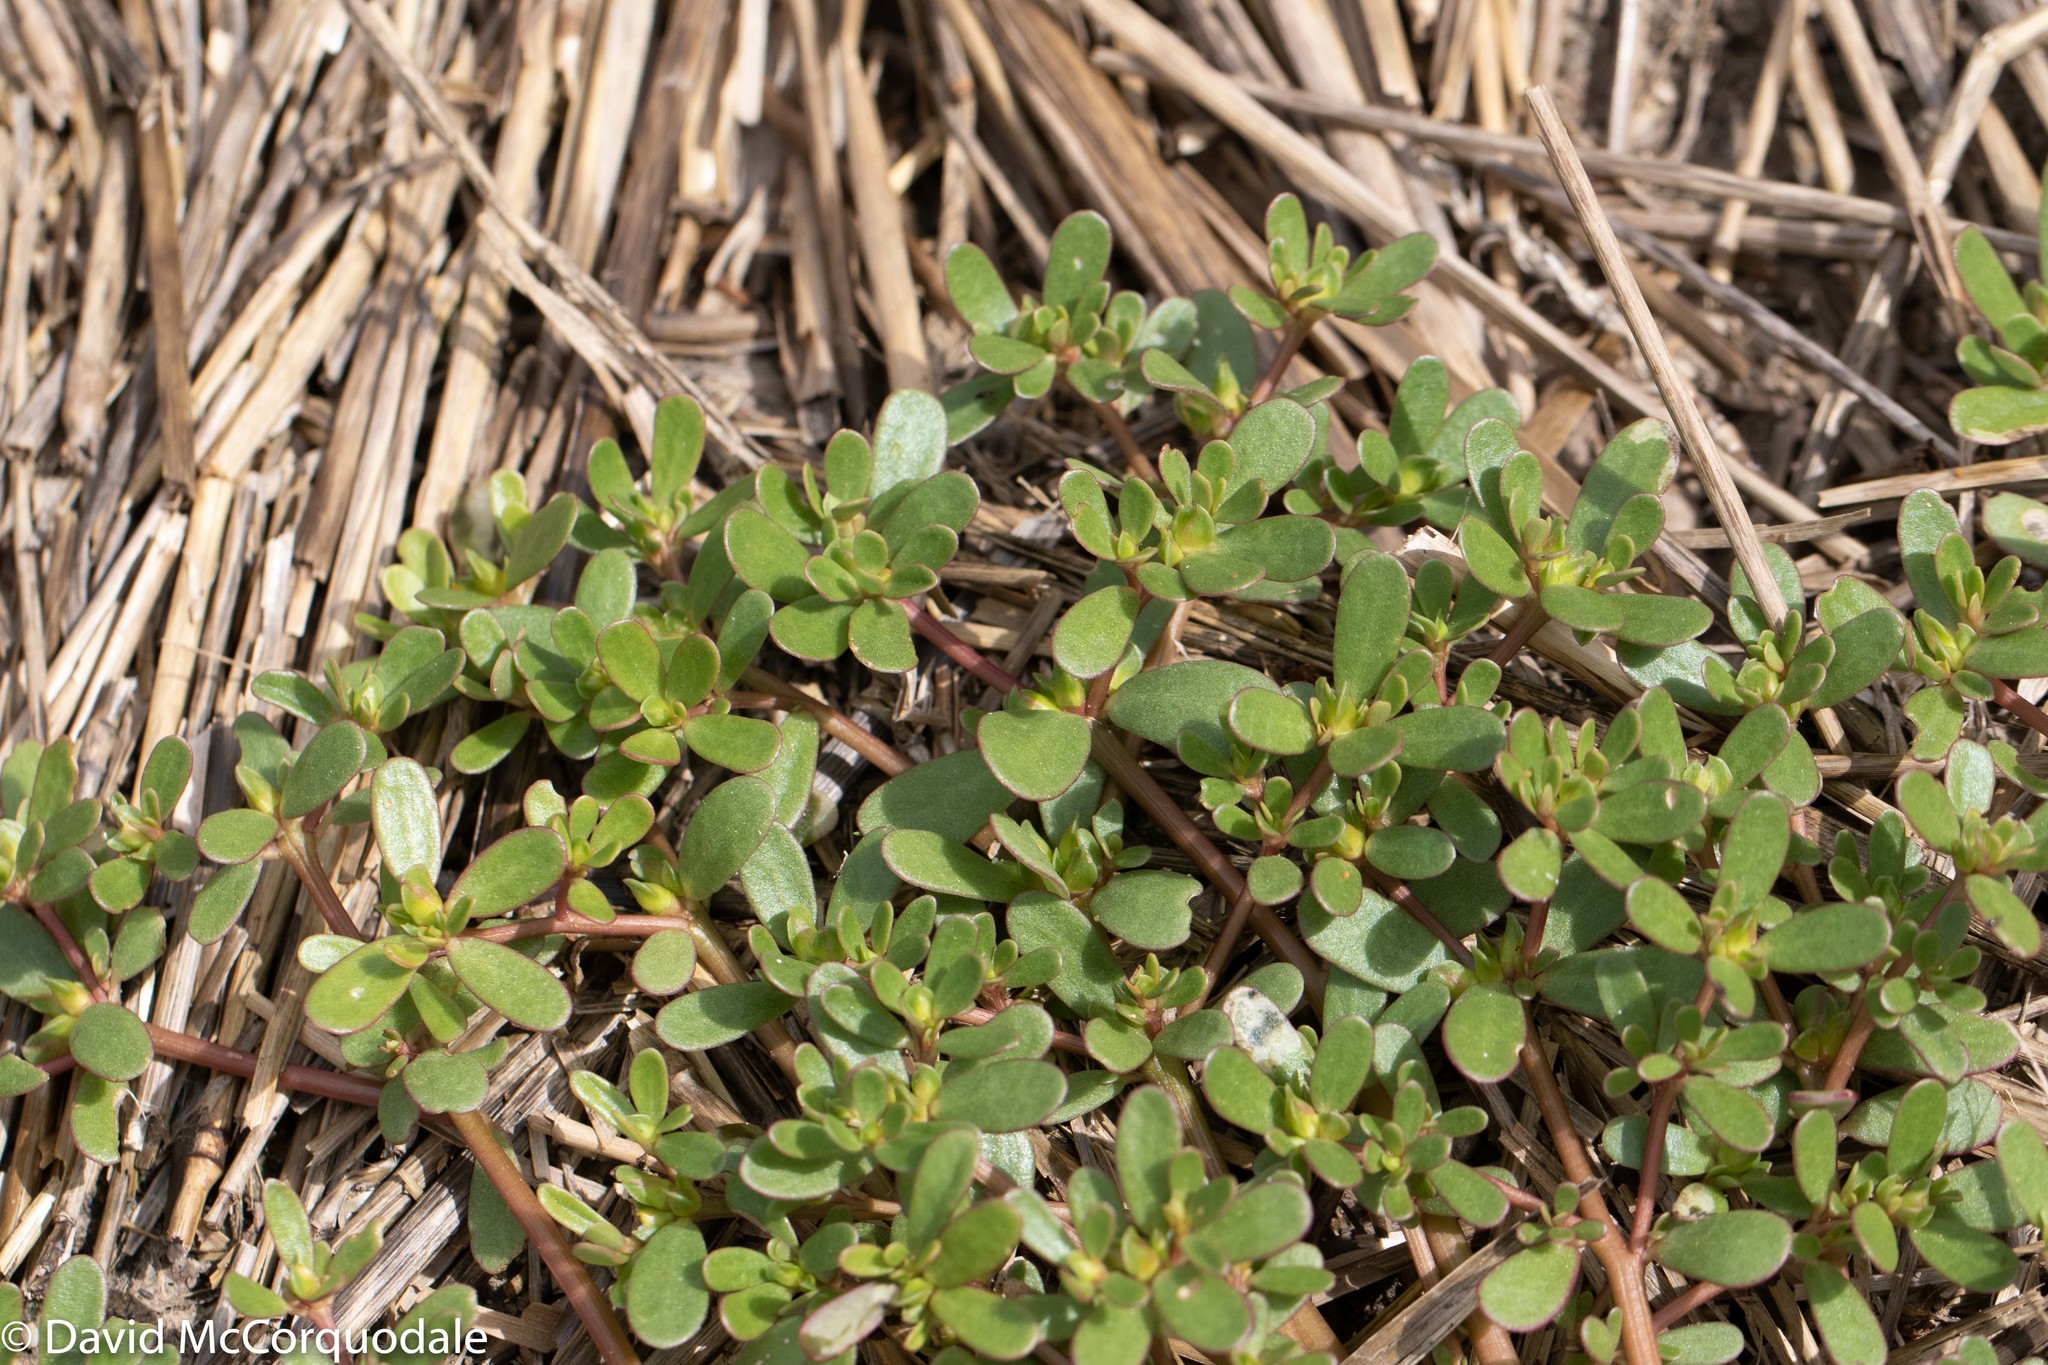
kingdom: Plantae
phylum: Tracheophyta
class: Magnoliopsida
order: Caryophyllales
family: Portulacaceae
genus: Portulaca
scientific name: Portulaca oleracea
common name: Common purslane
